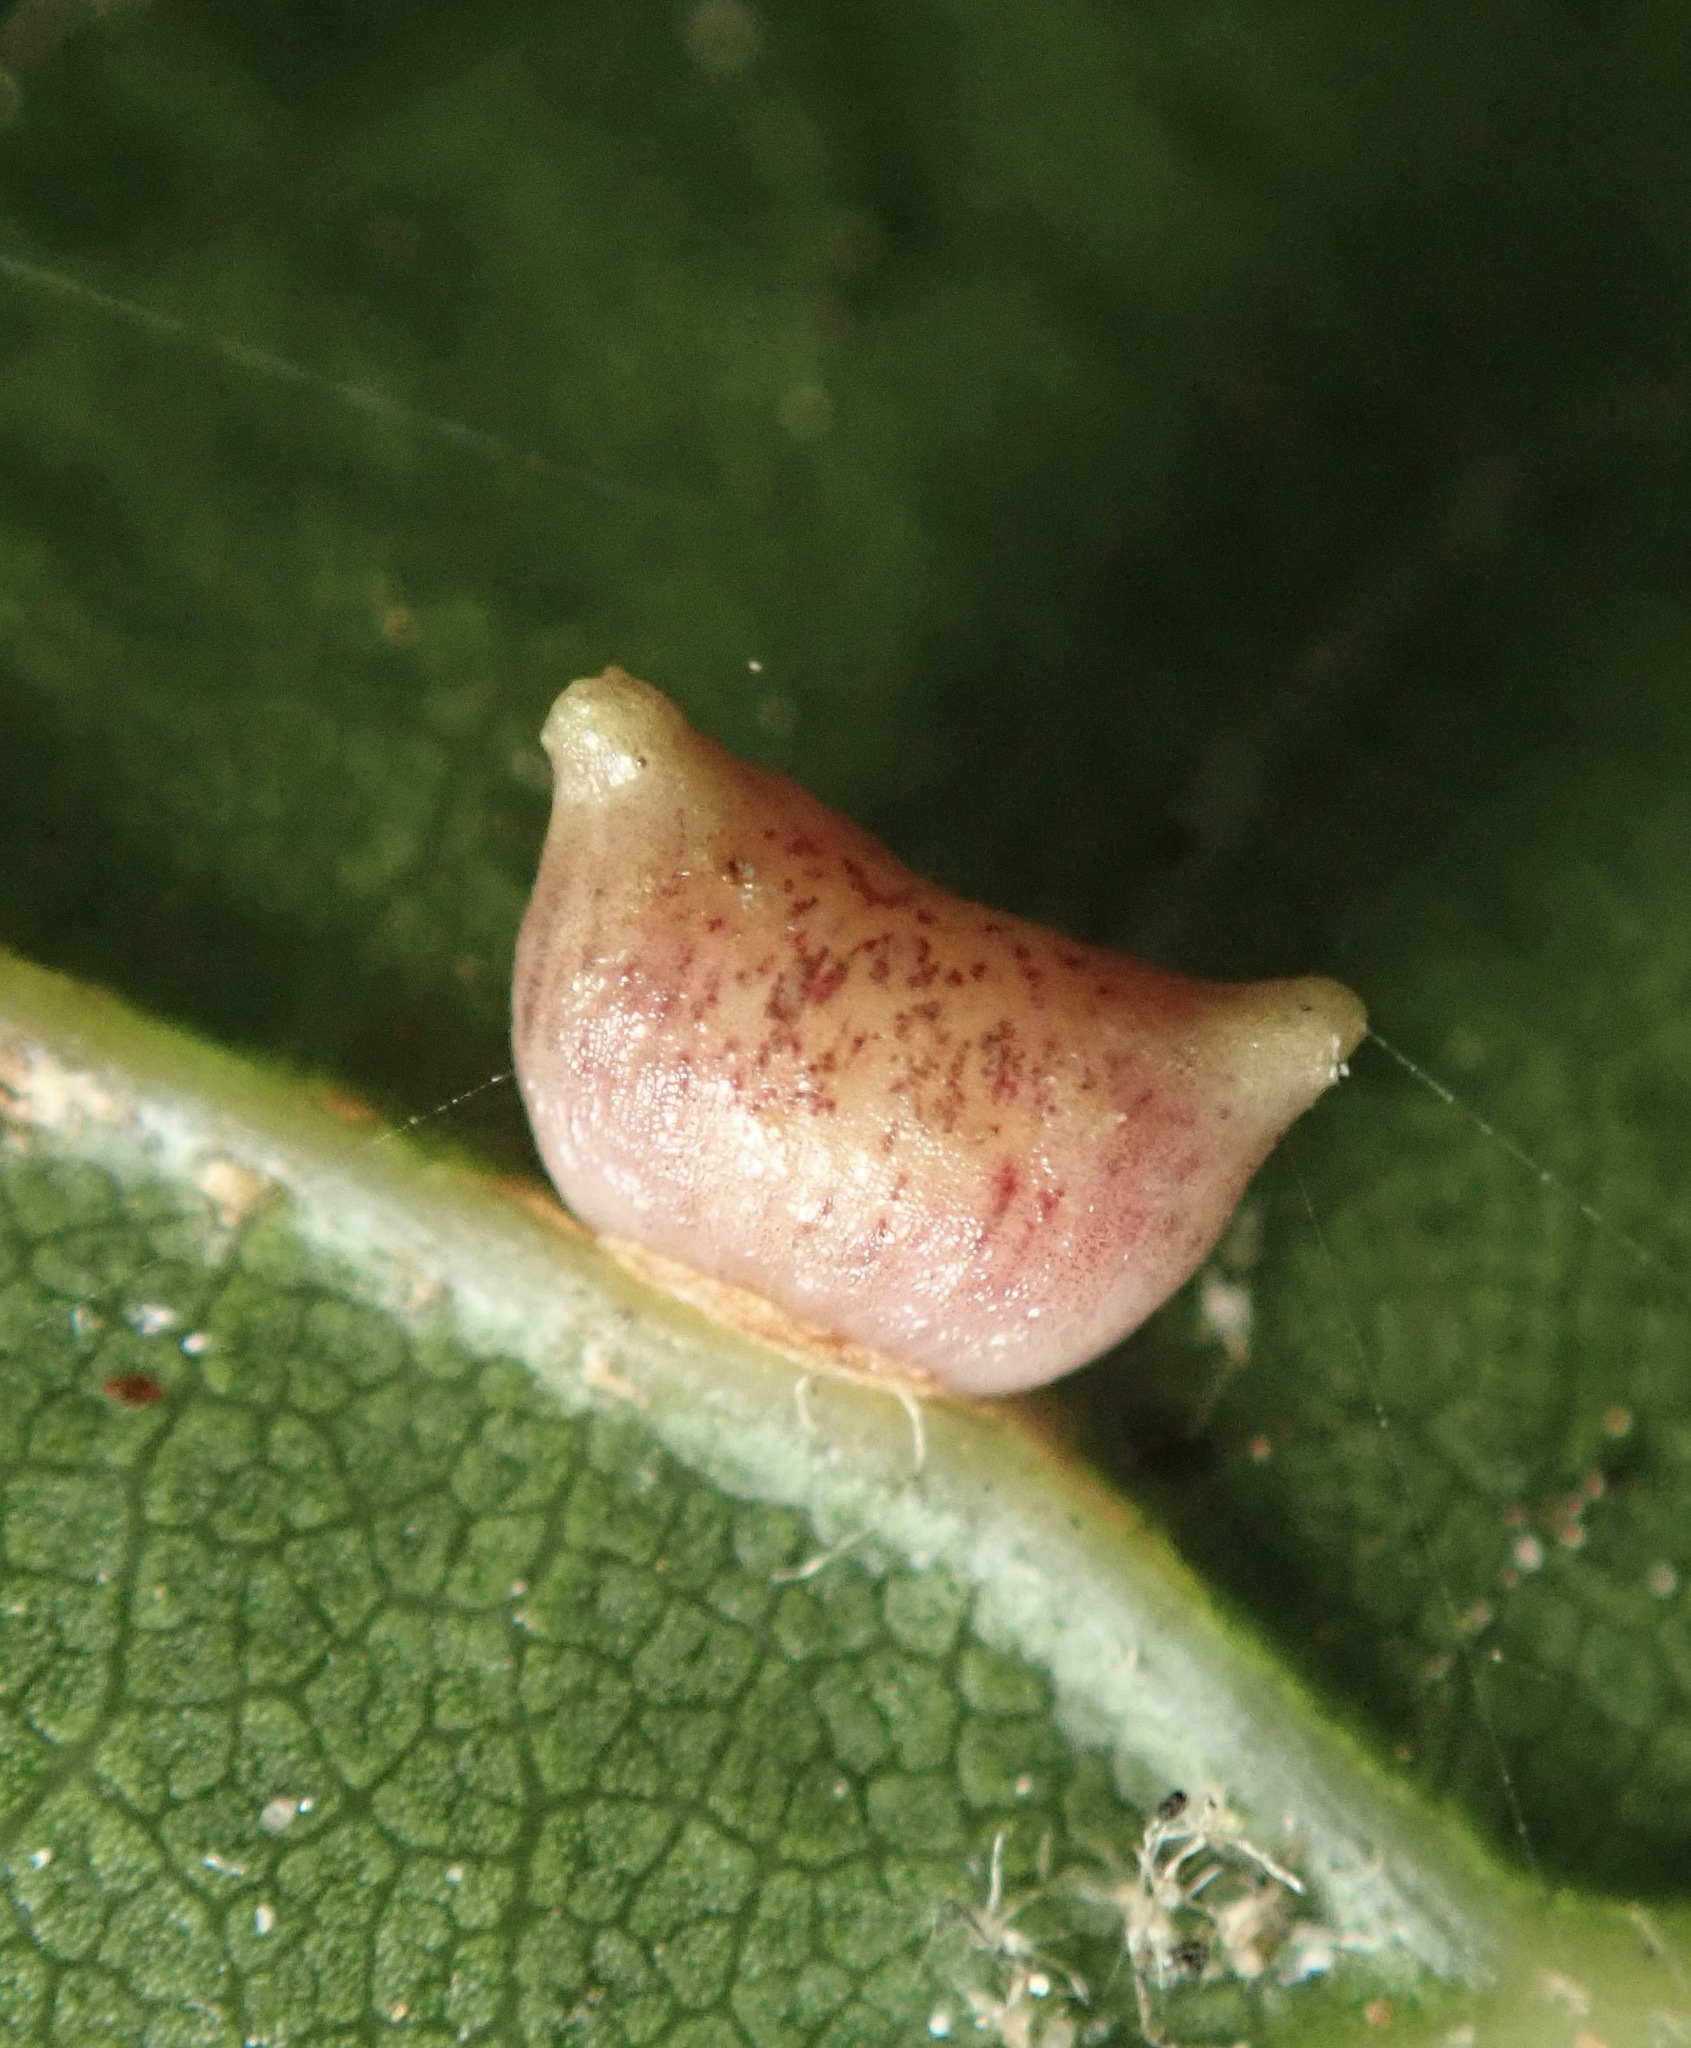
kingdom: Animalia
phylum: Arthropoda
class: Insecta
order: Hymenoptera
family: Cynipidae
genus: Dryocosmus
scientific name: Dryocosmus
